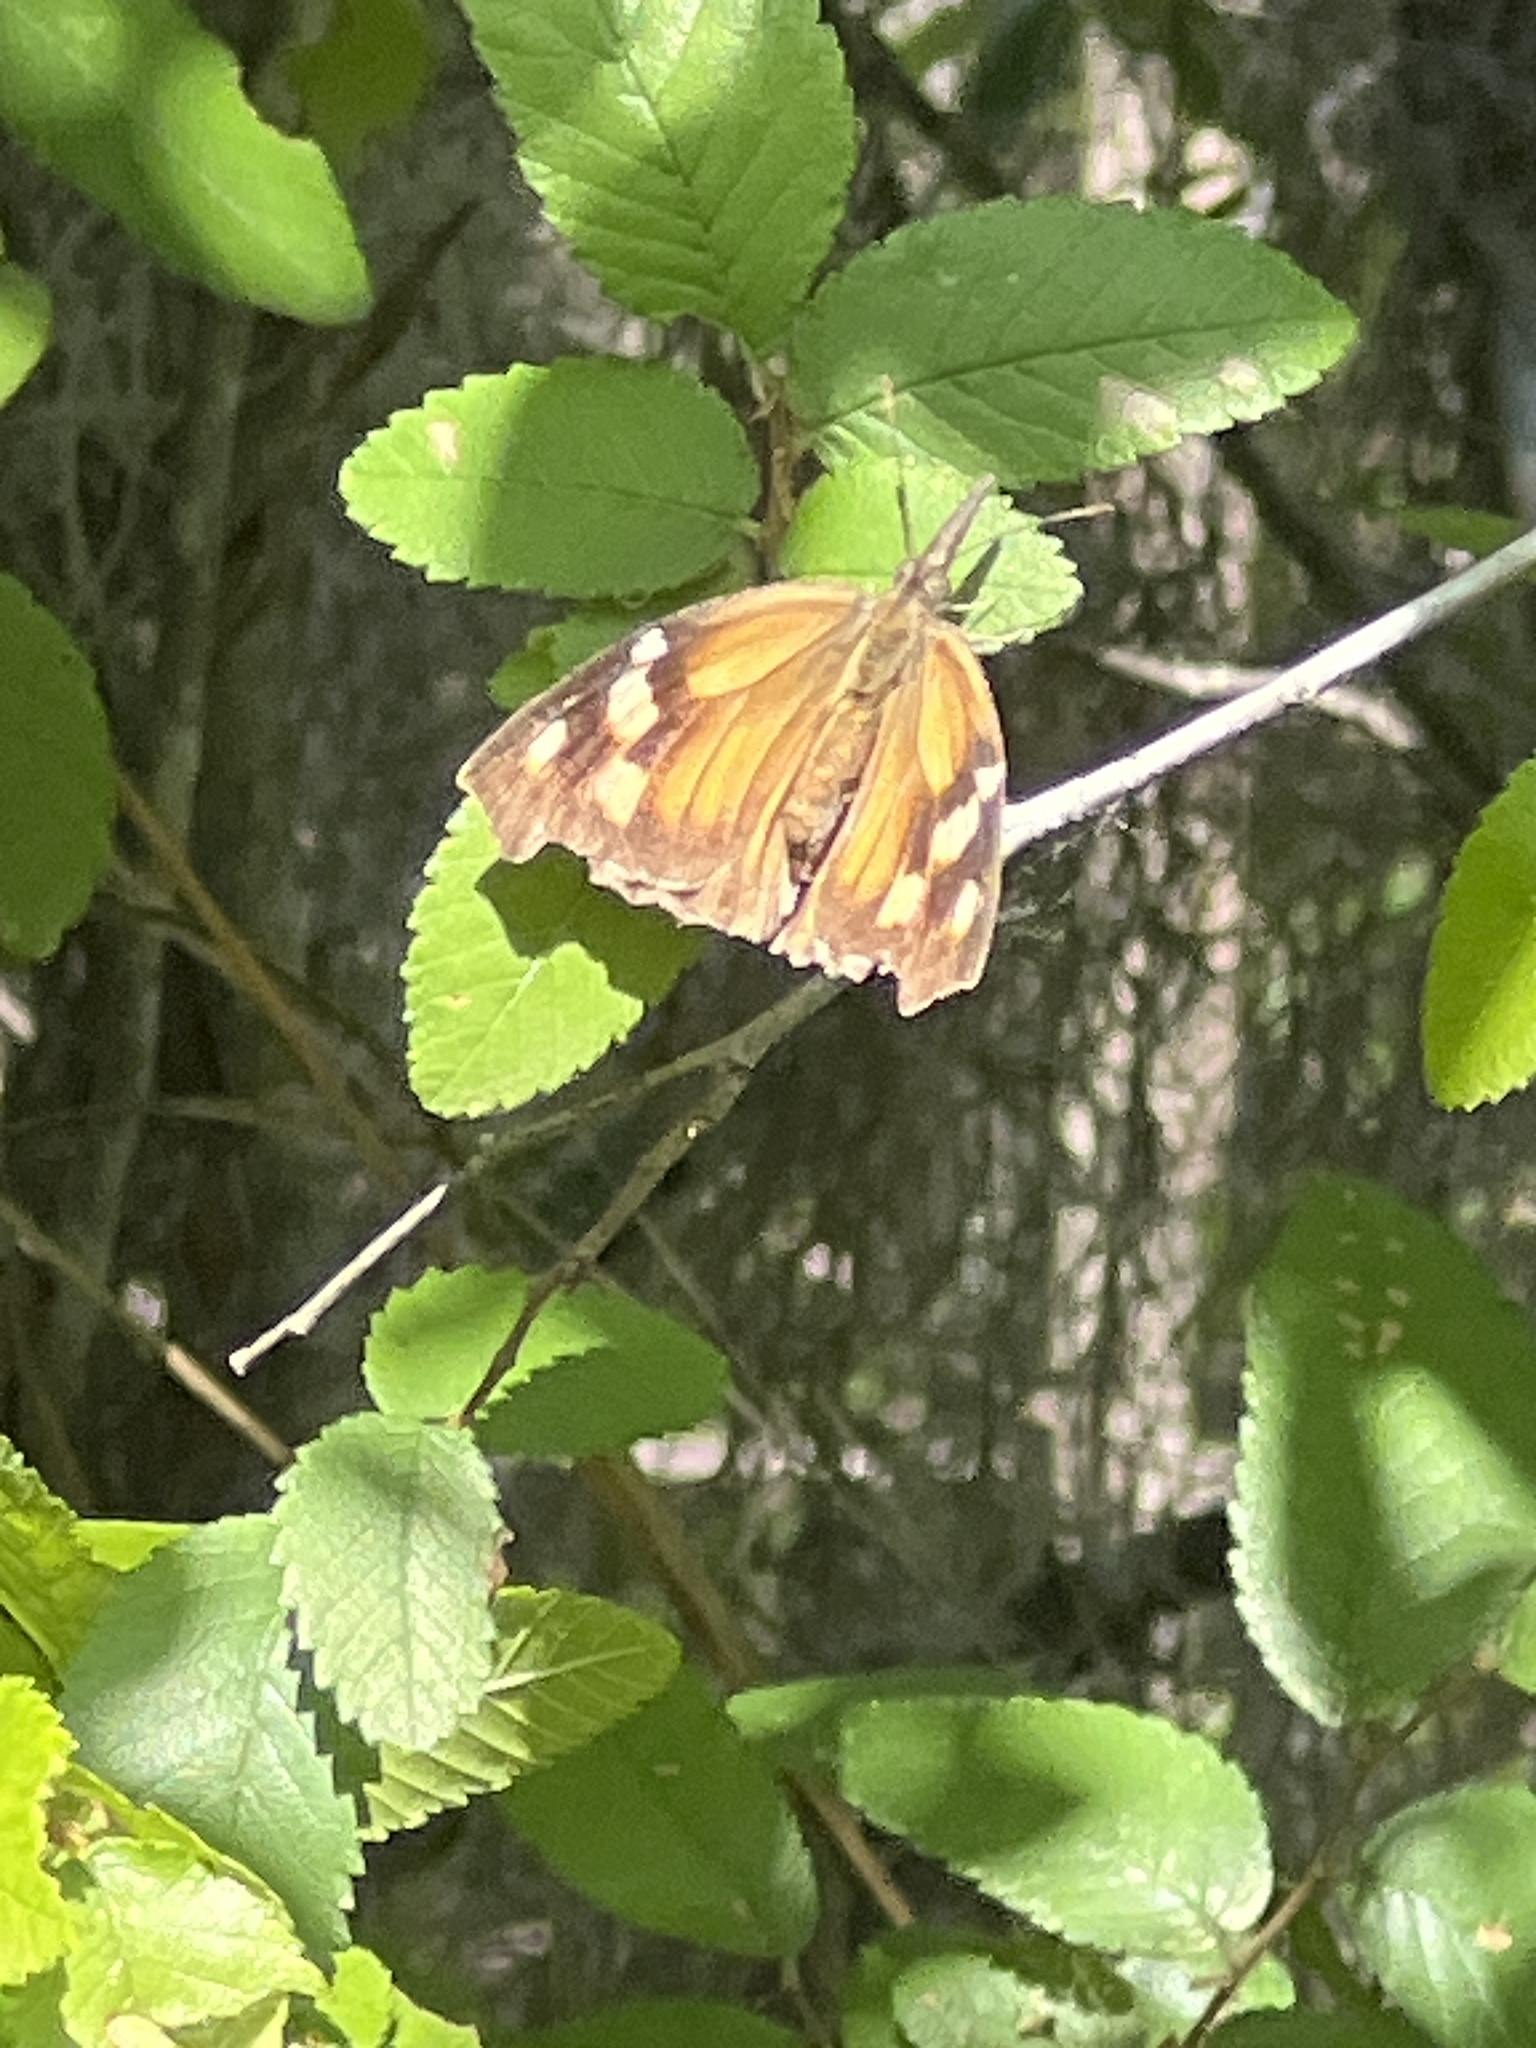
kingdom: Animalia
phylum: Arthropoda
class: Insecta
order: Lepidoptera
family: Nymphalidae
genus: Libytheana
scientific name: Libytheana carinenta
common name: American snout
